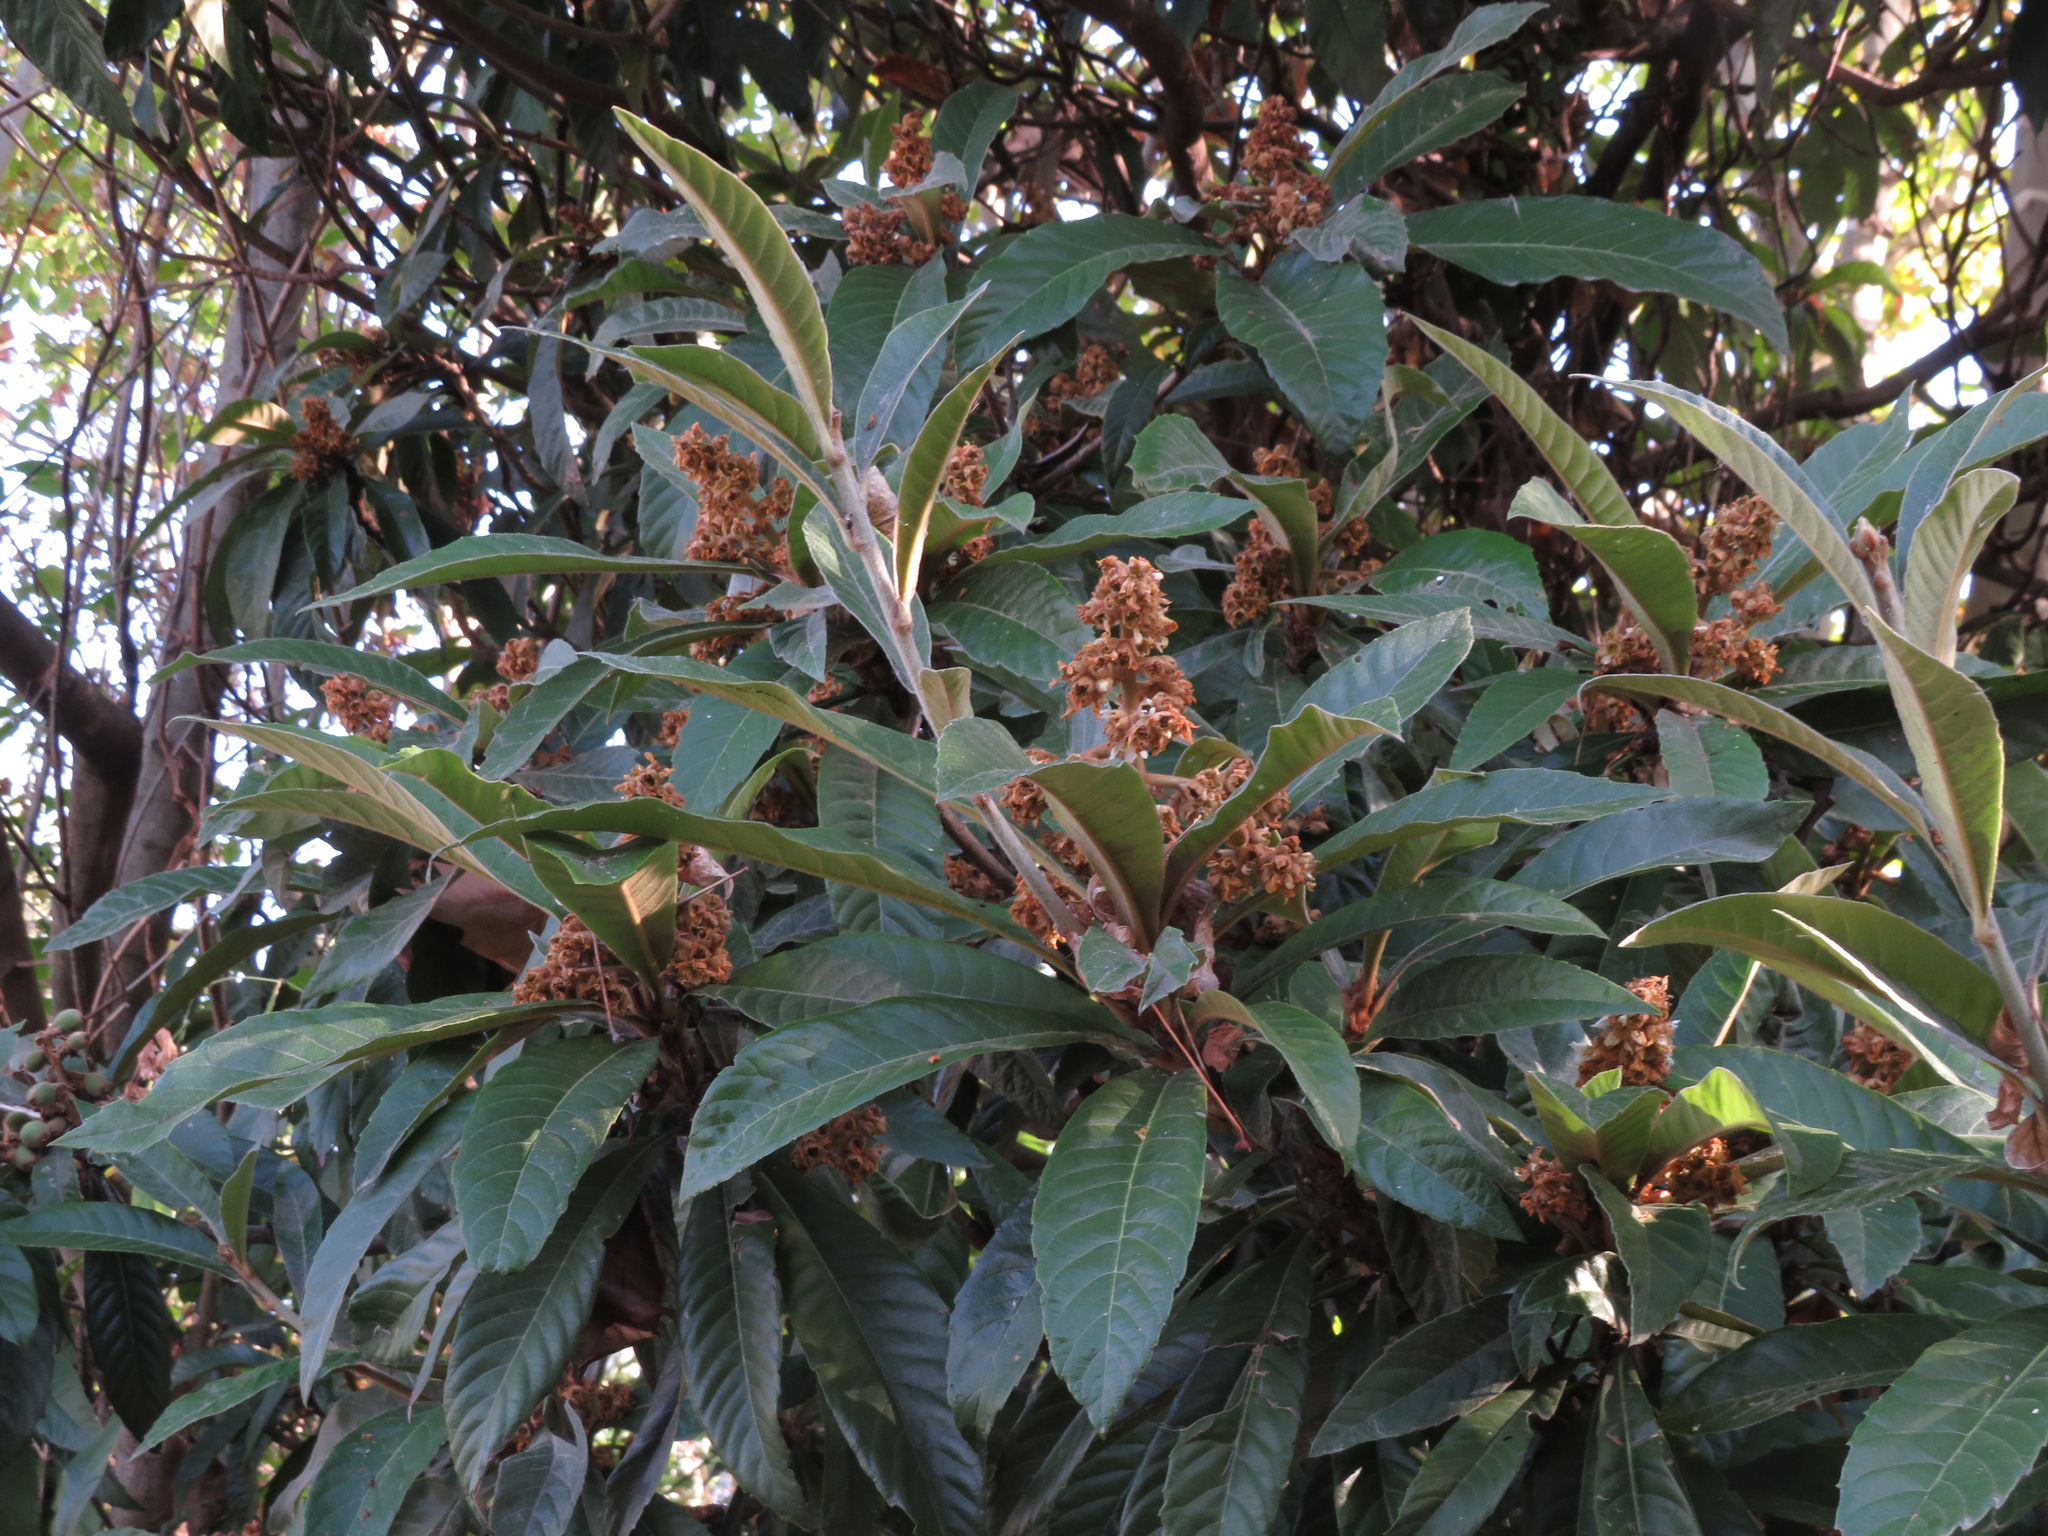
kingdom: Plantae
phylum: Tracheophyta
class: Magnoliopsida
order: Rosales
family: Rosaceae
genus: Rhaphiolepis
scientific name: Rhaphiolepis bibas
